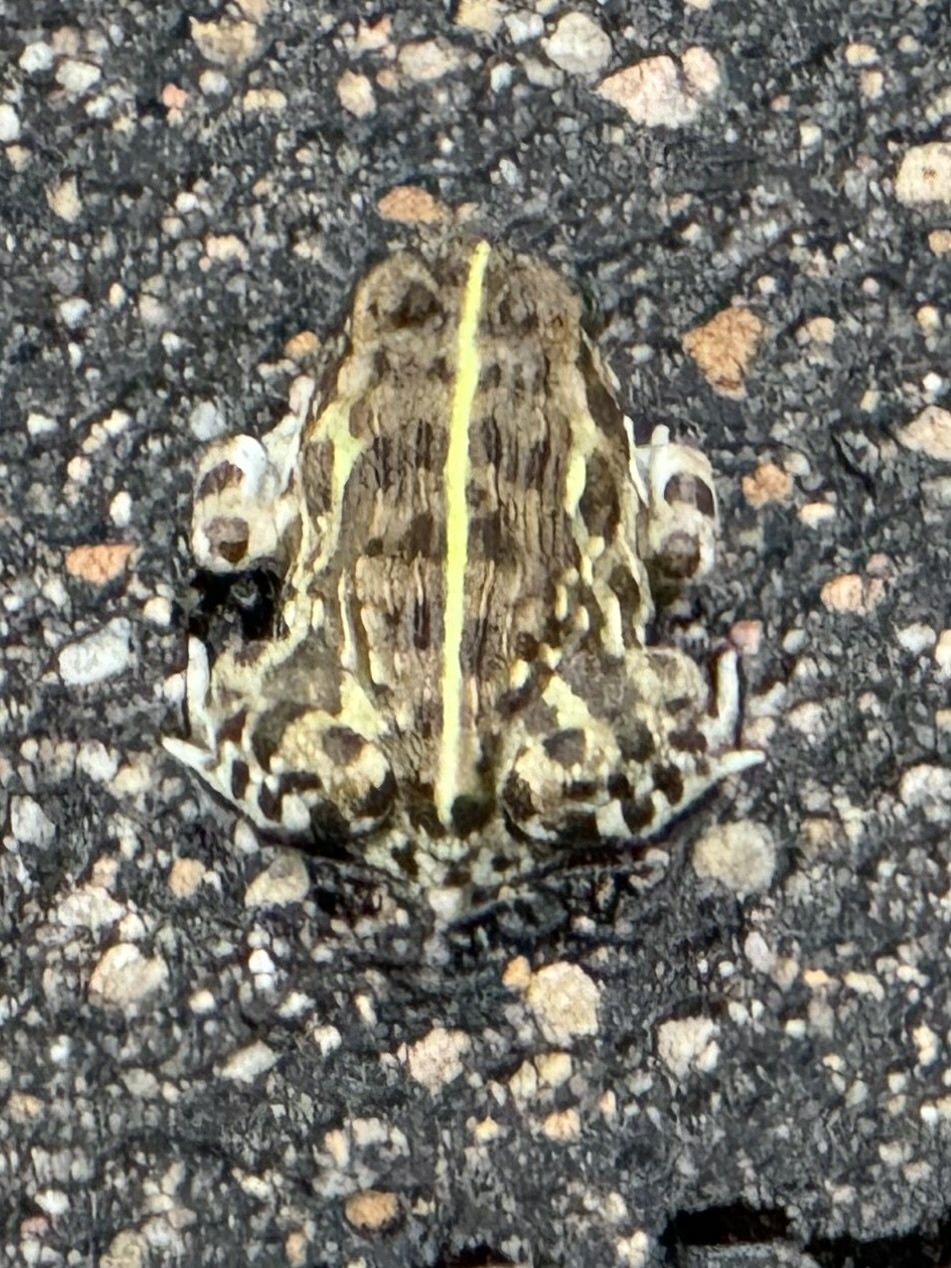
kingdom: Animalia
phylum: Chordata
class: Amphibia
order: Anura
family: Pyxicephalidae
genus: Pyxicephalus
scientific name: Pyxicephalus edulis
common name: Peter's bullfrog
